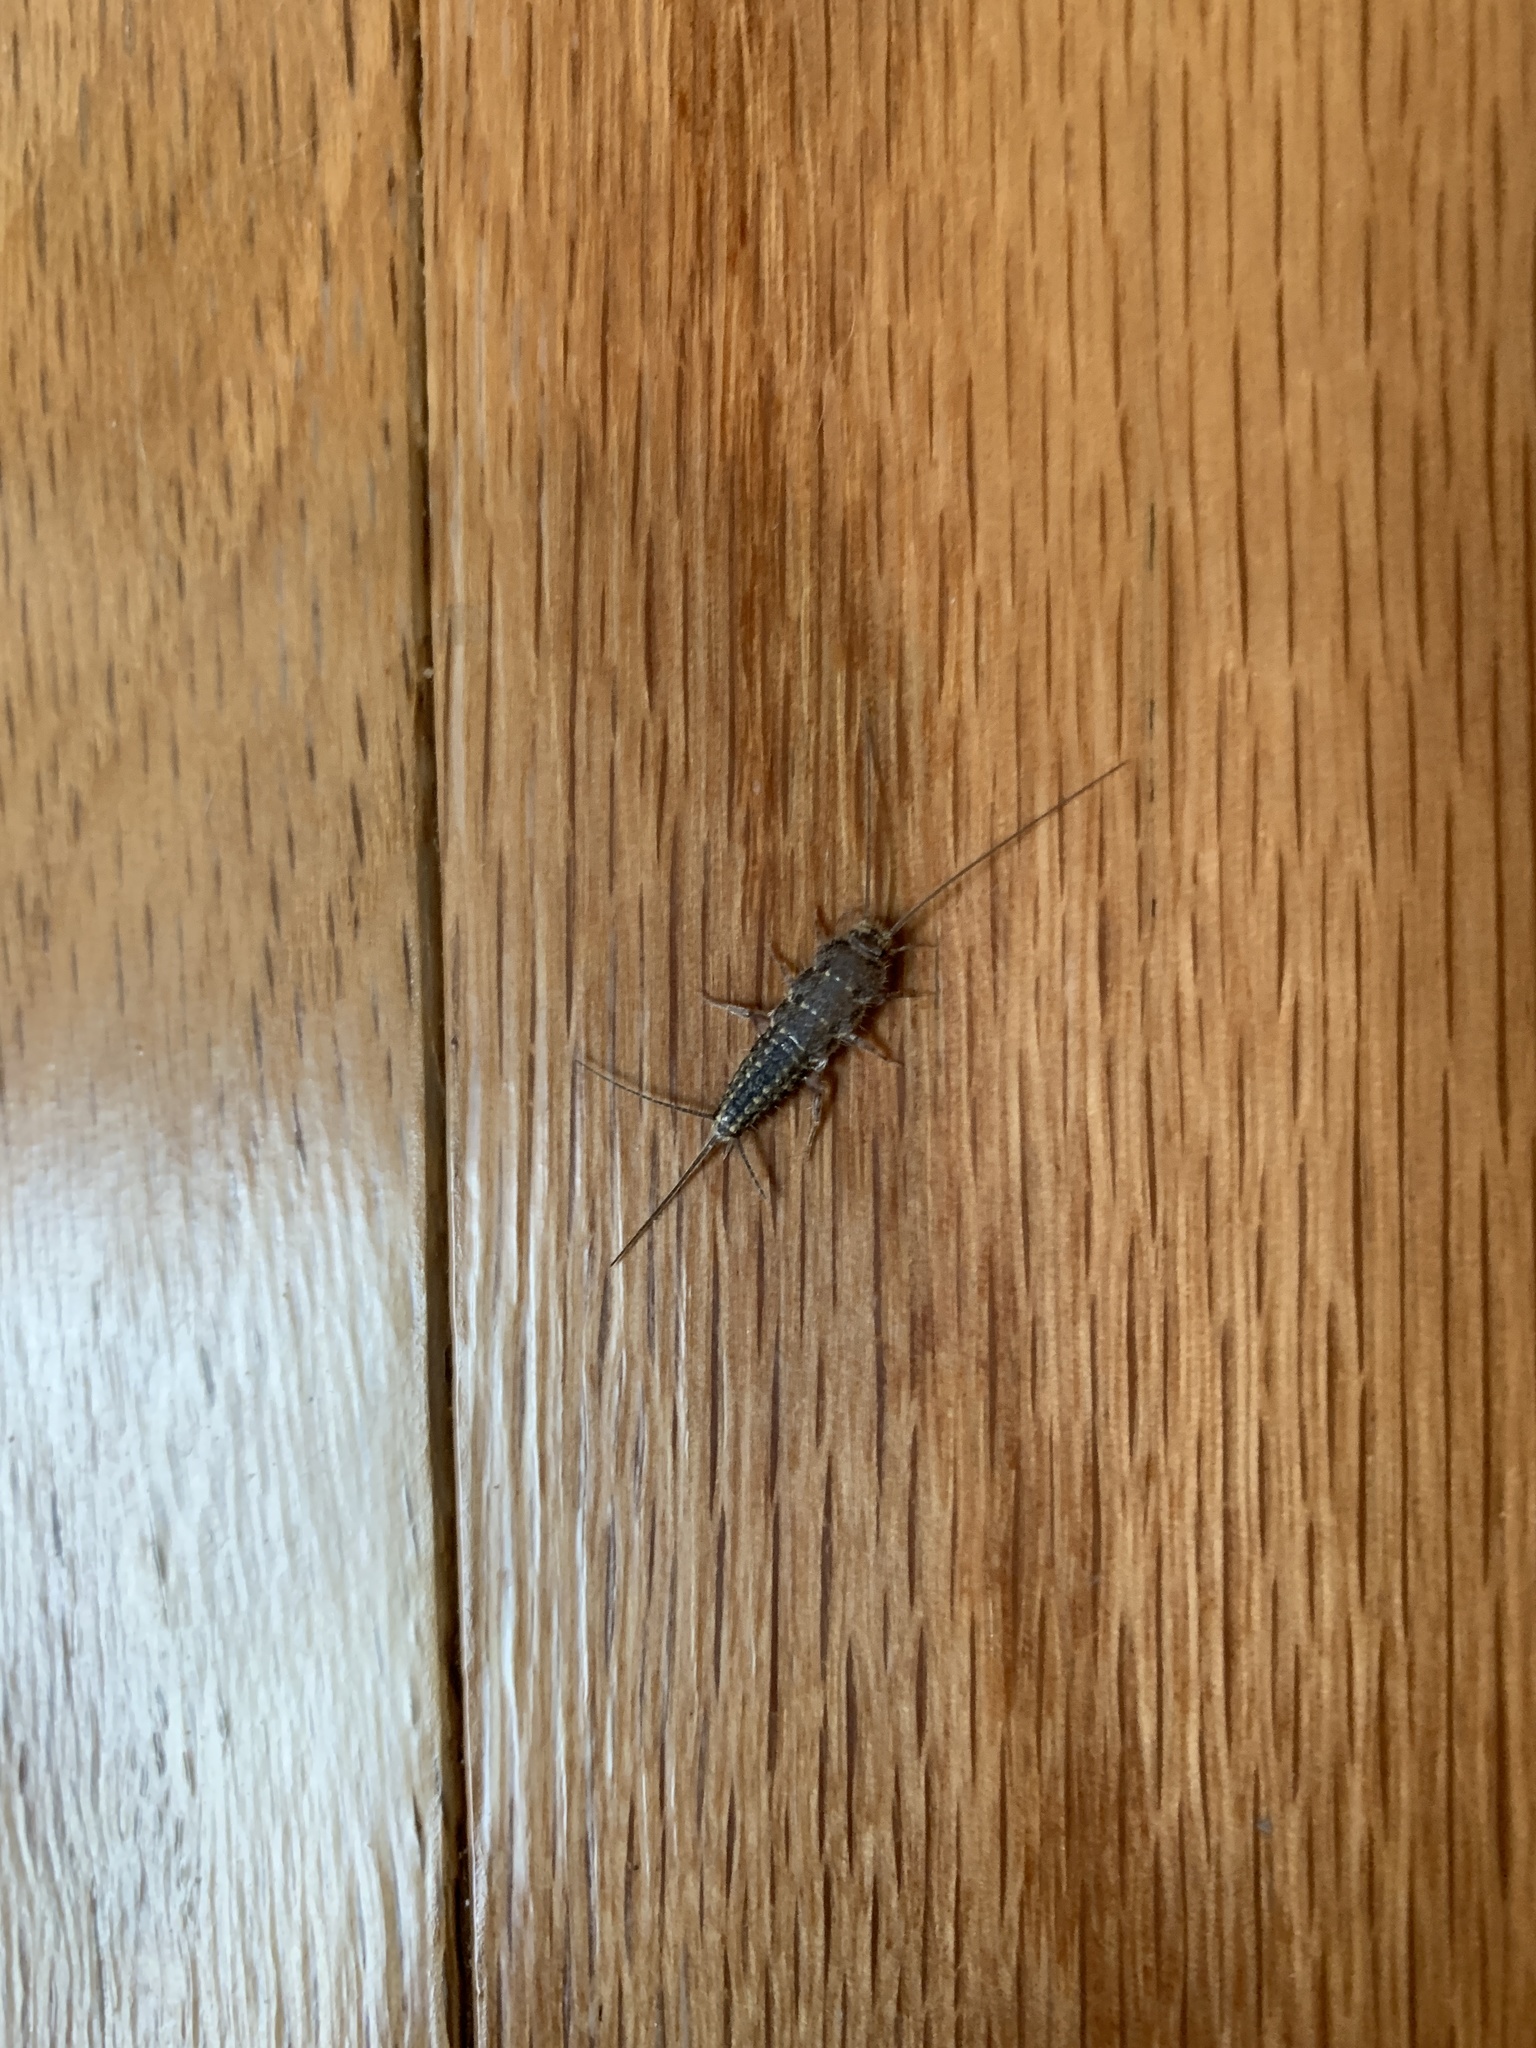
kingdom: Animalia
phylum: Arthropoda
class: Insecta
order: Zygentoma
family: Lepismatidae
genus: Ctenolepisma
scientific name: Ctenolepisma lineata
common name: Four-lined silverfish
